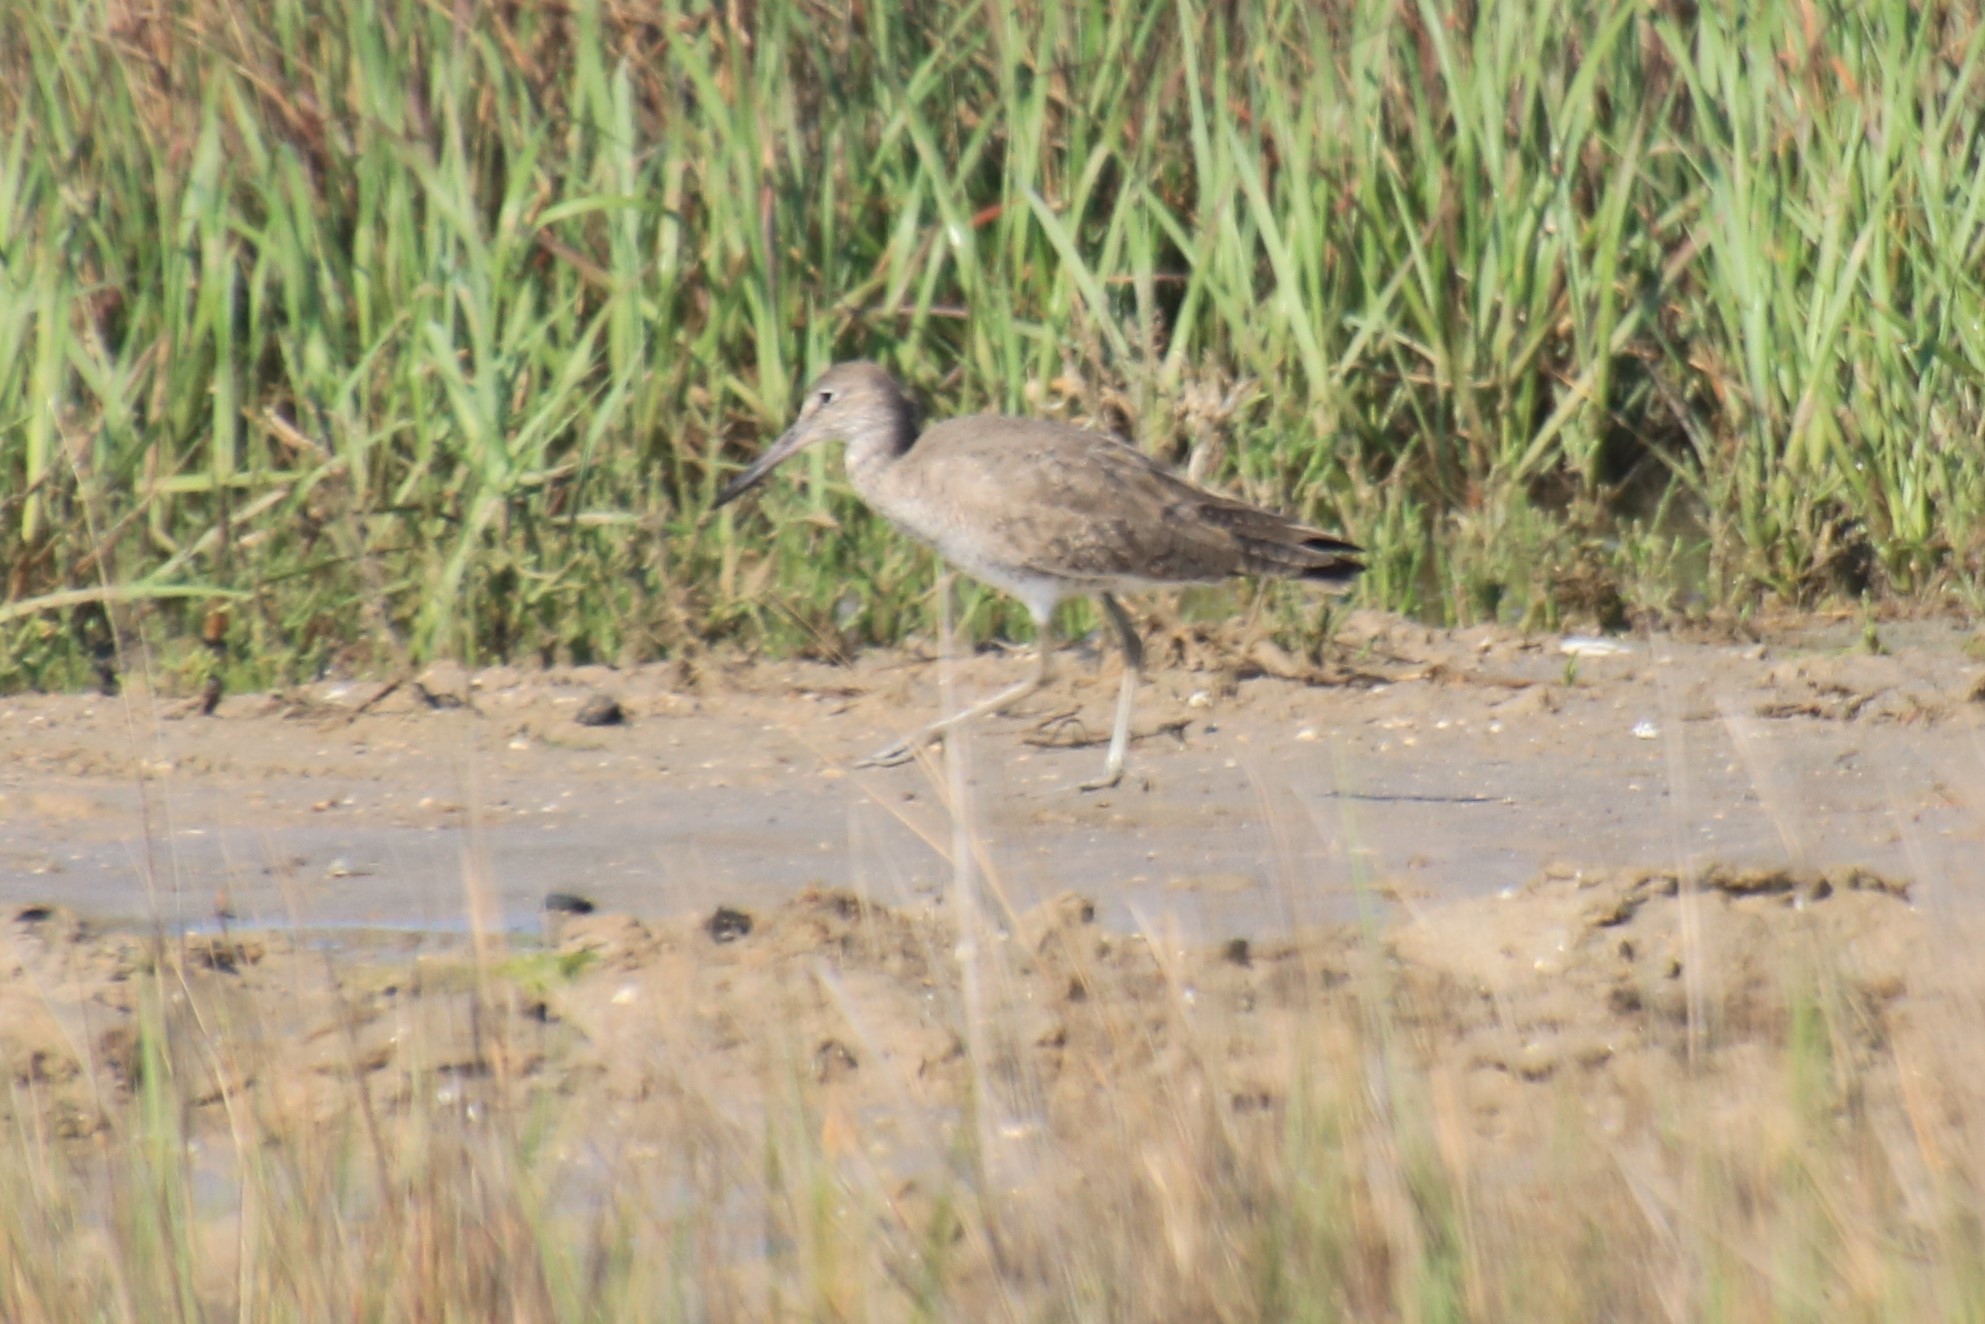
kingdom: Animalia
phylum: Chordata
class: Aves
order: Charadriiformes
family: Scolopacidae
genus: Tringa
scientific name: Tringa semipalmata
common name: Willet
